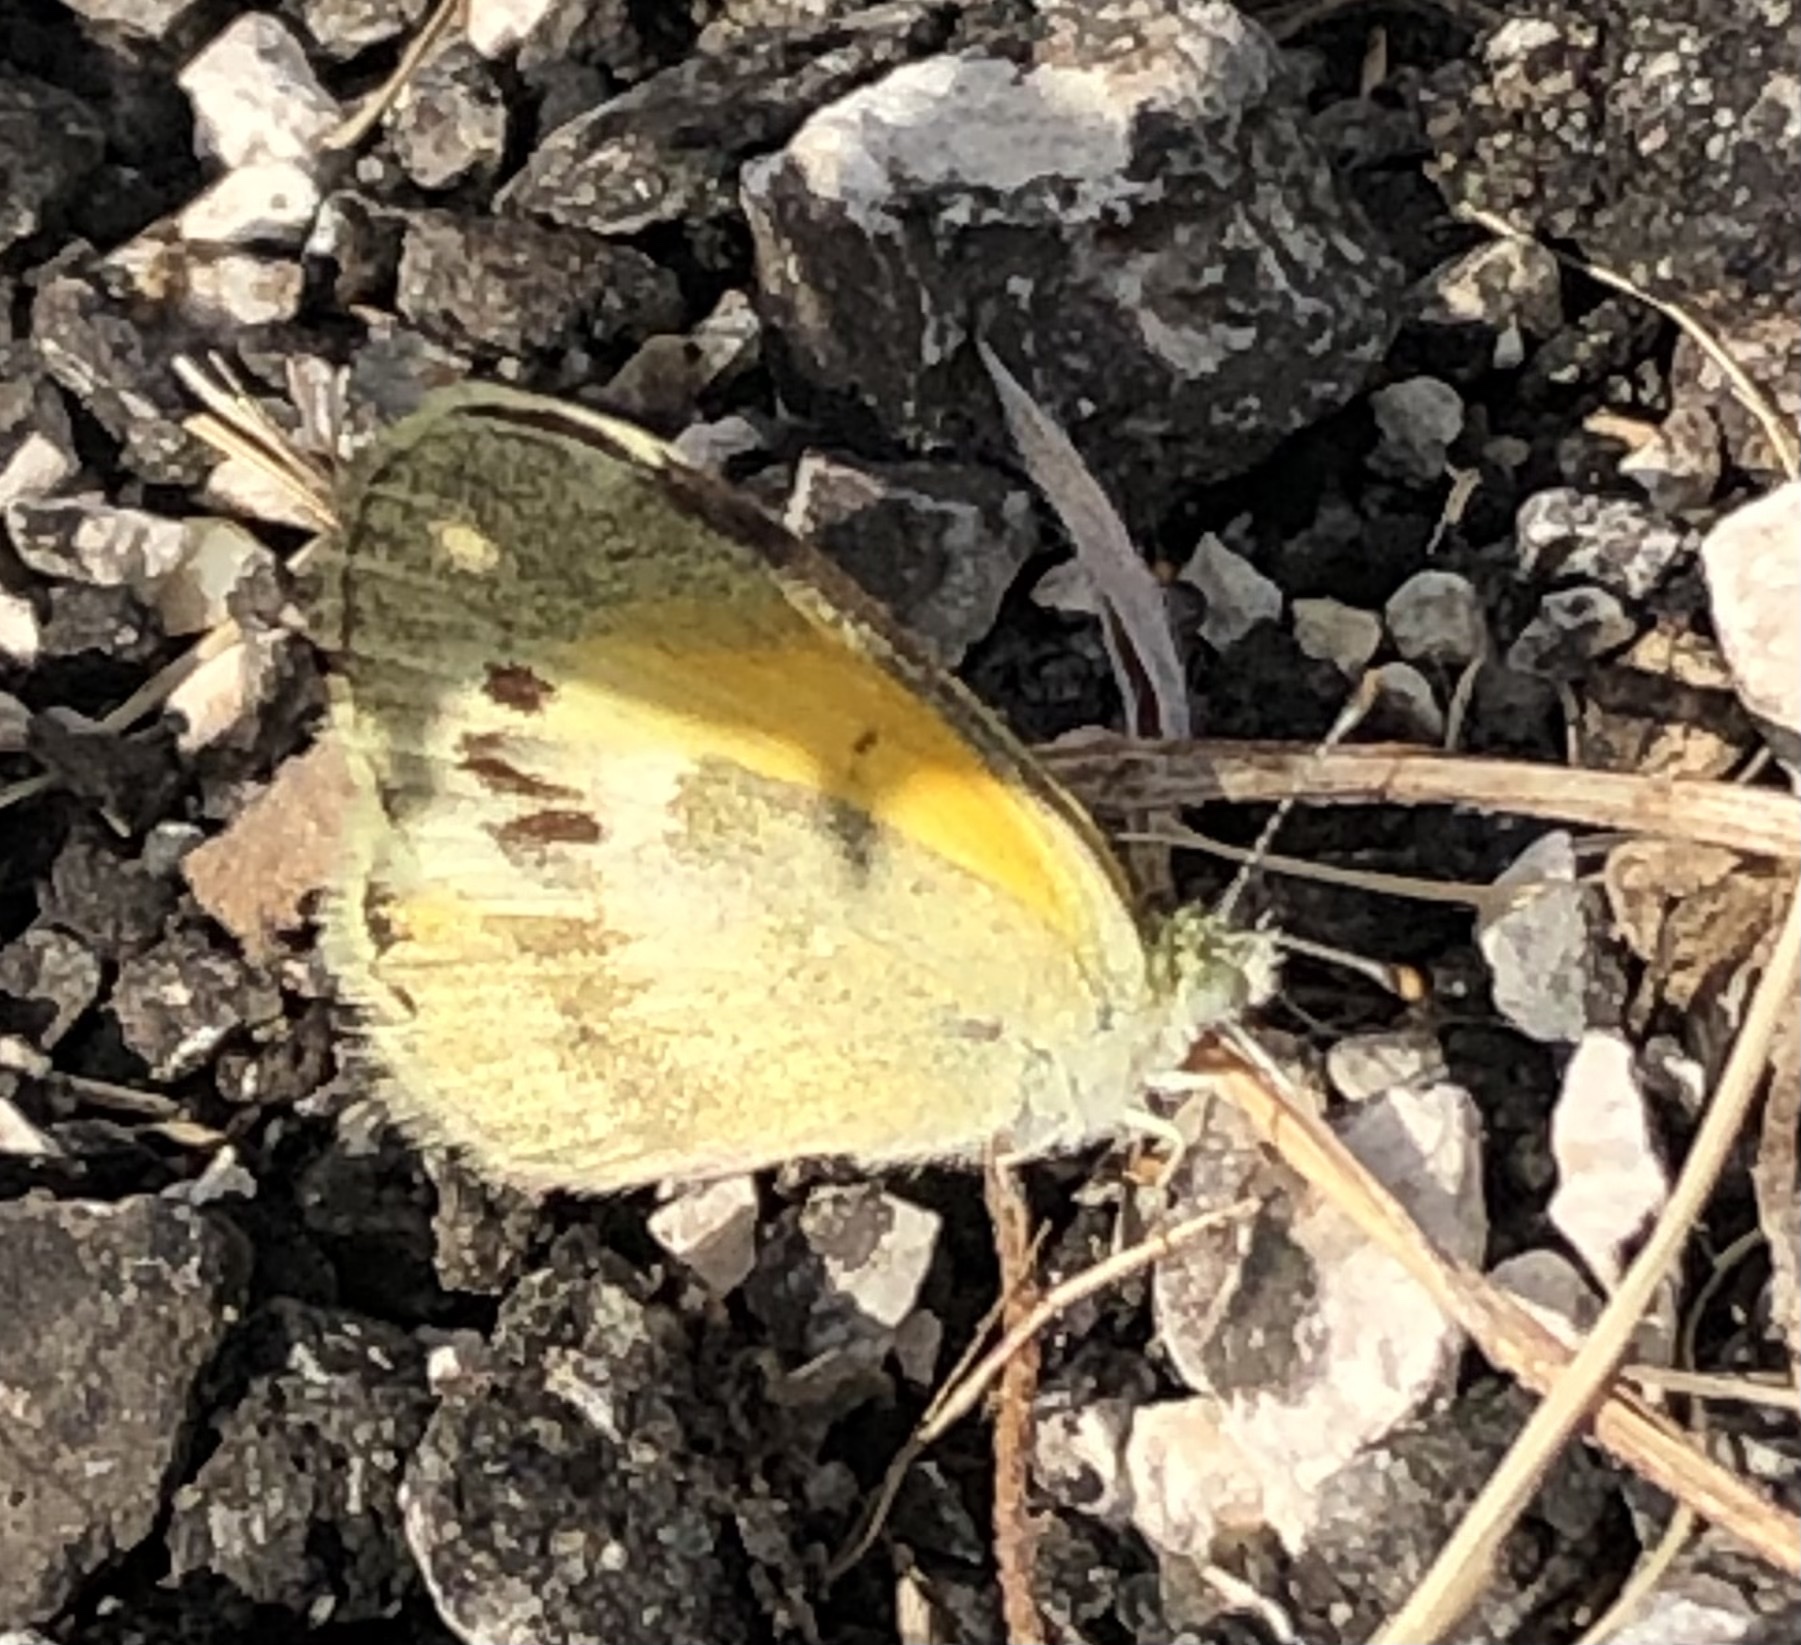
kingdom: Animalia
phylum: Arthropoda
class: Insecta
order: Lepidoptera
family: Pieridae
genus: Nathalis
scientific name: Nathalis iole
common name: Dainty sulphur
